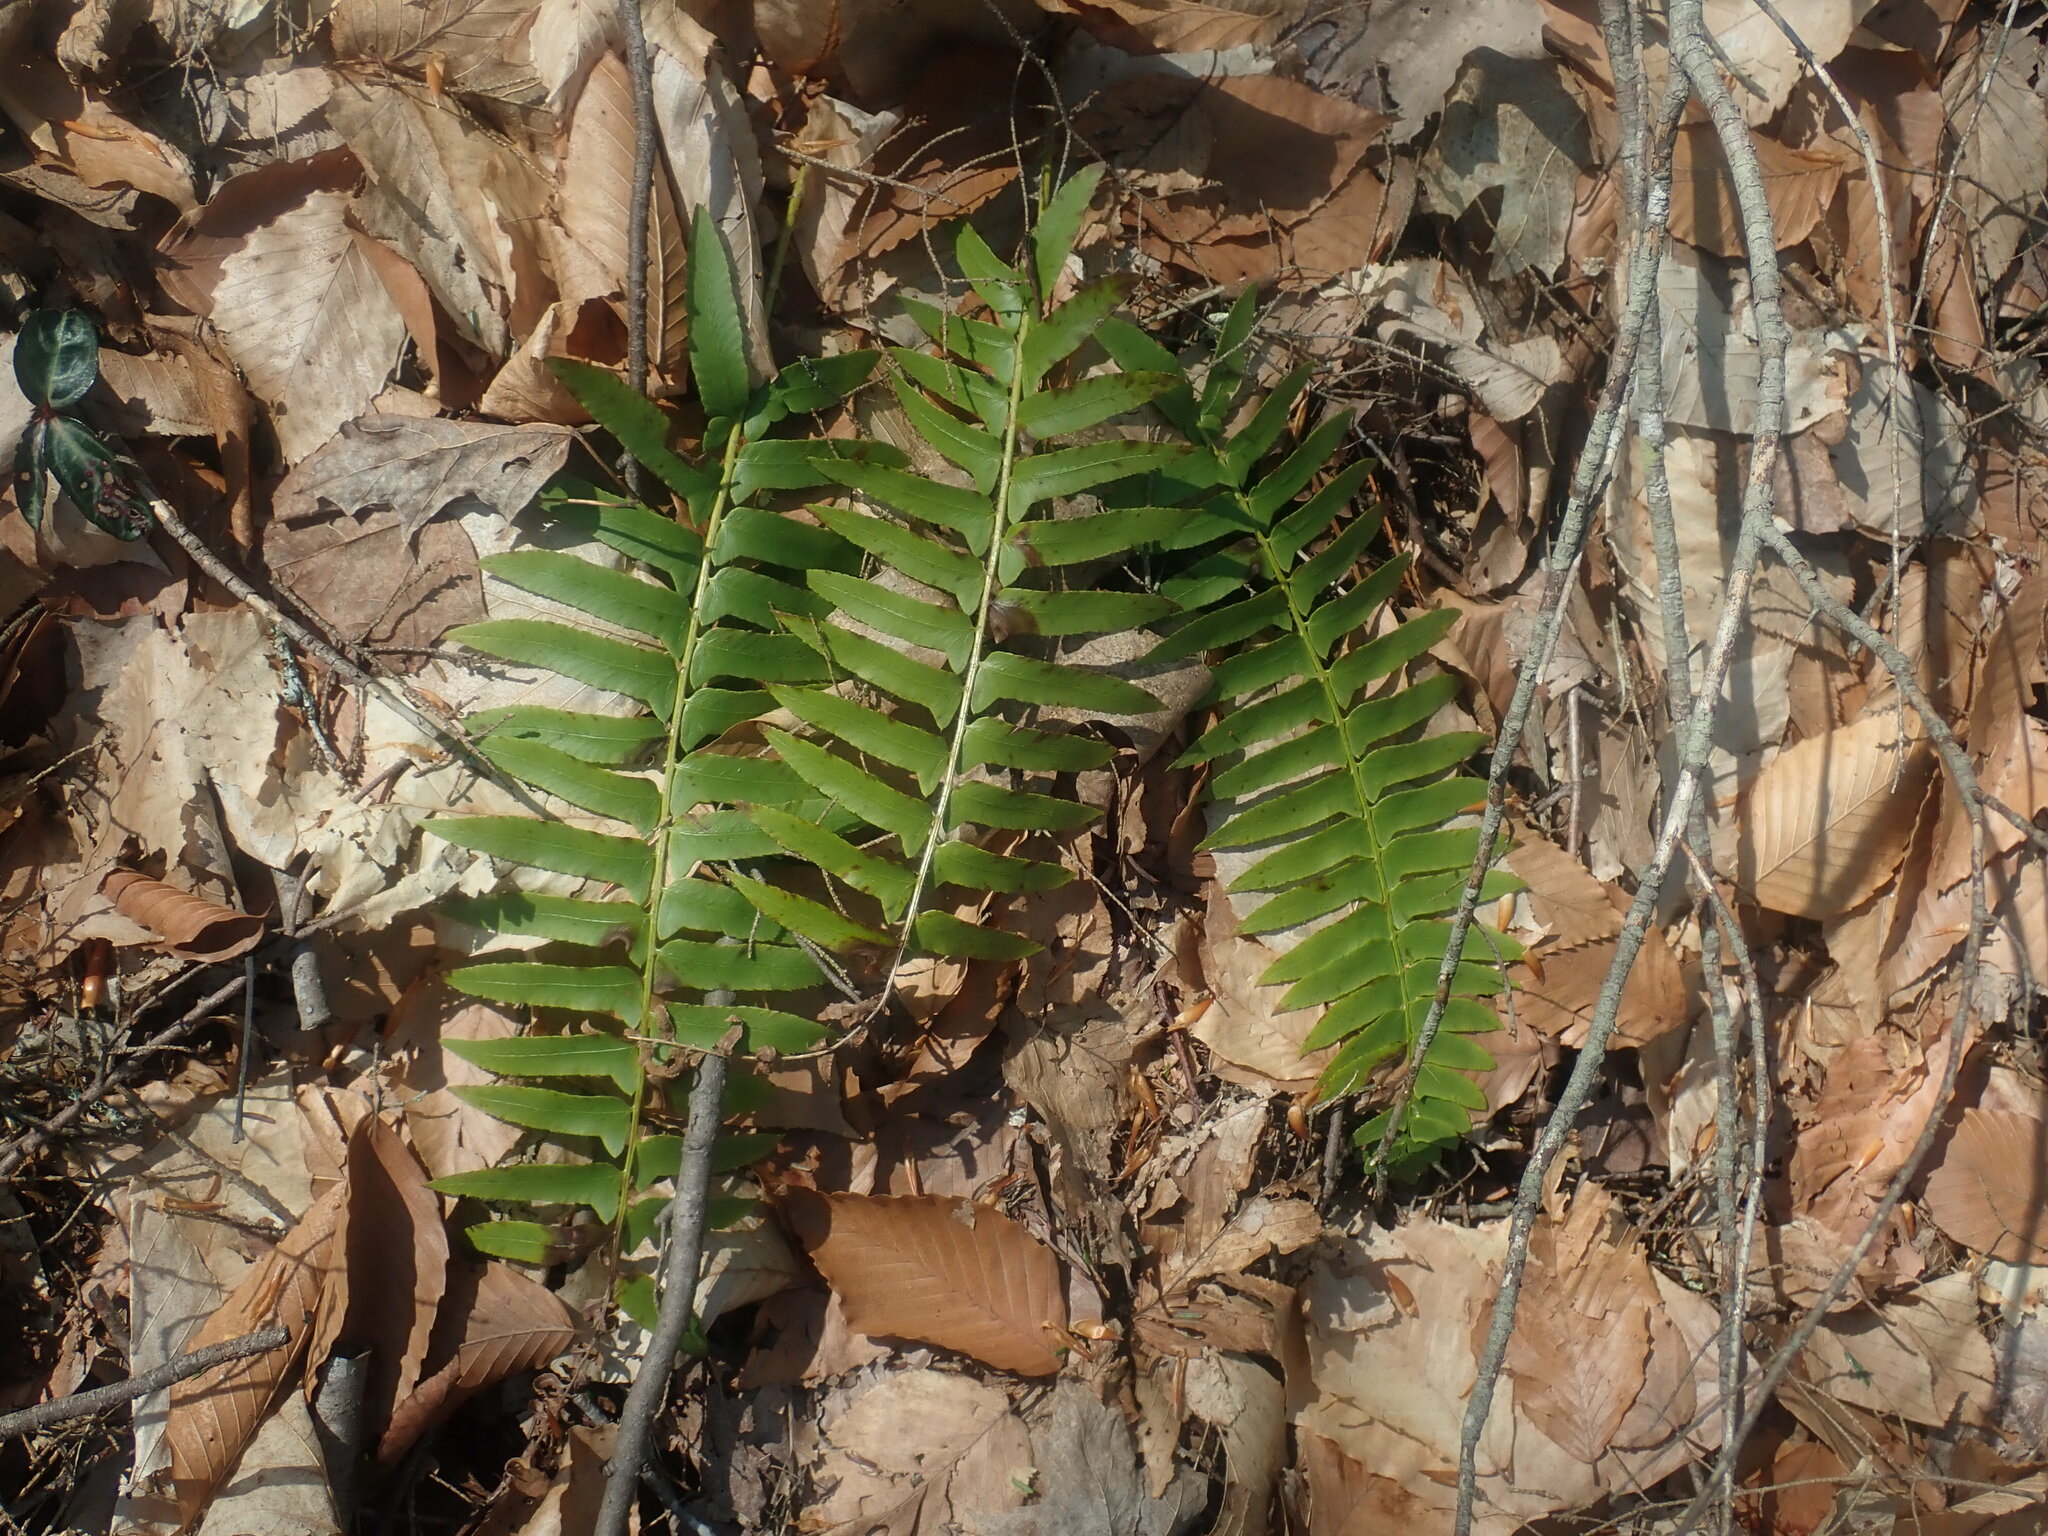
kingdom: Plantae
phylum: Tracheophyta
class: Polypodiopsida
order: Polypodiales
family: Dryopteridaceae
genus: Polystichum
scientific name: Polystichum acrostichoides
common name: Christmas fern
